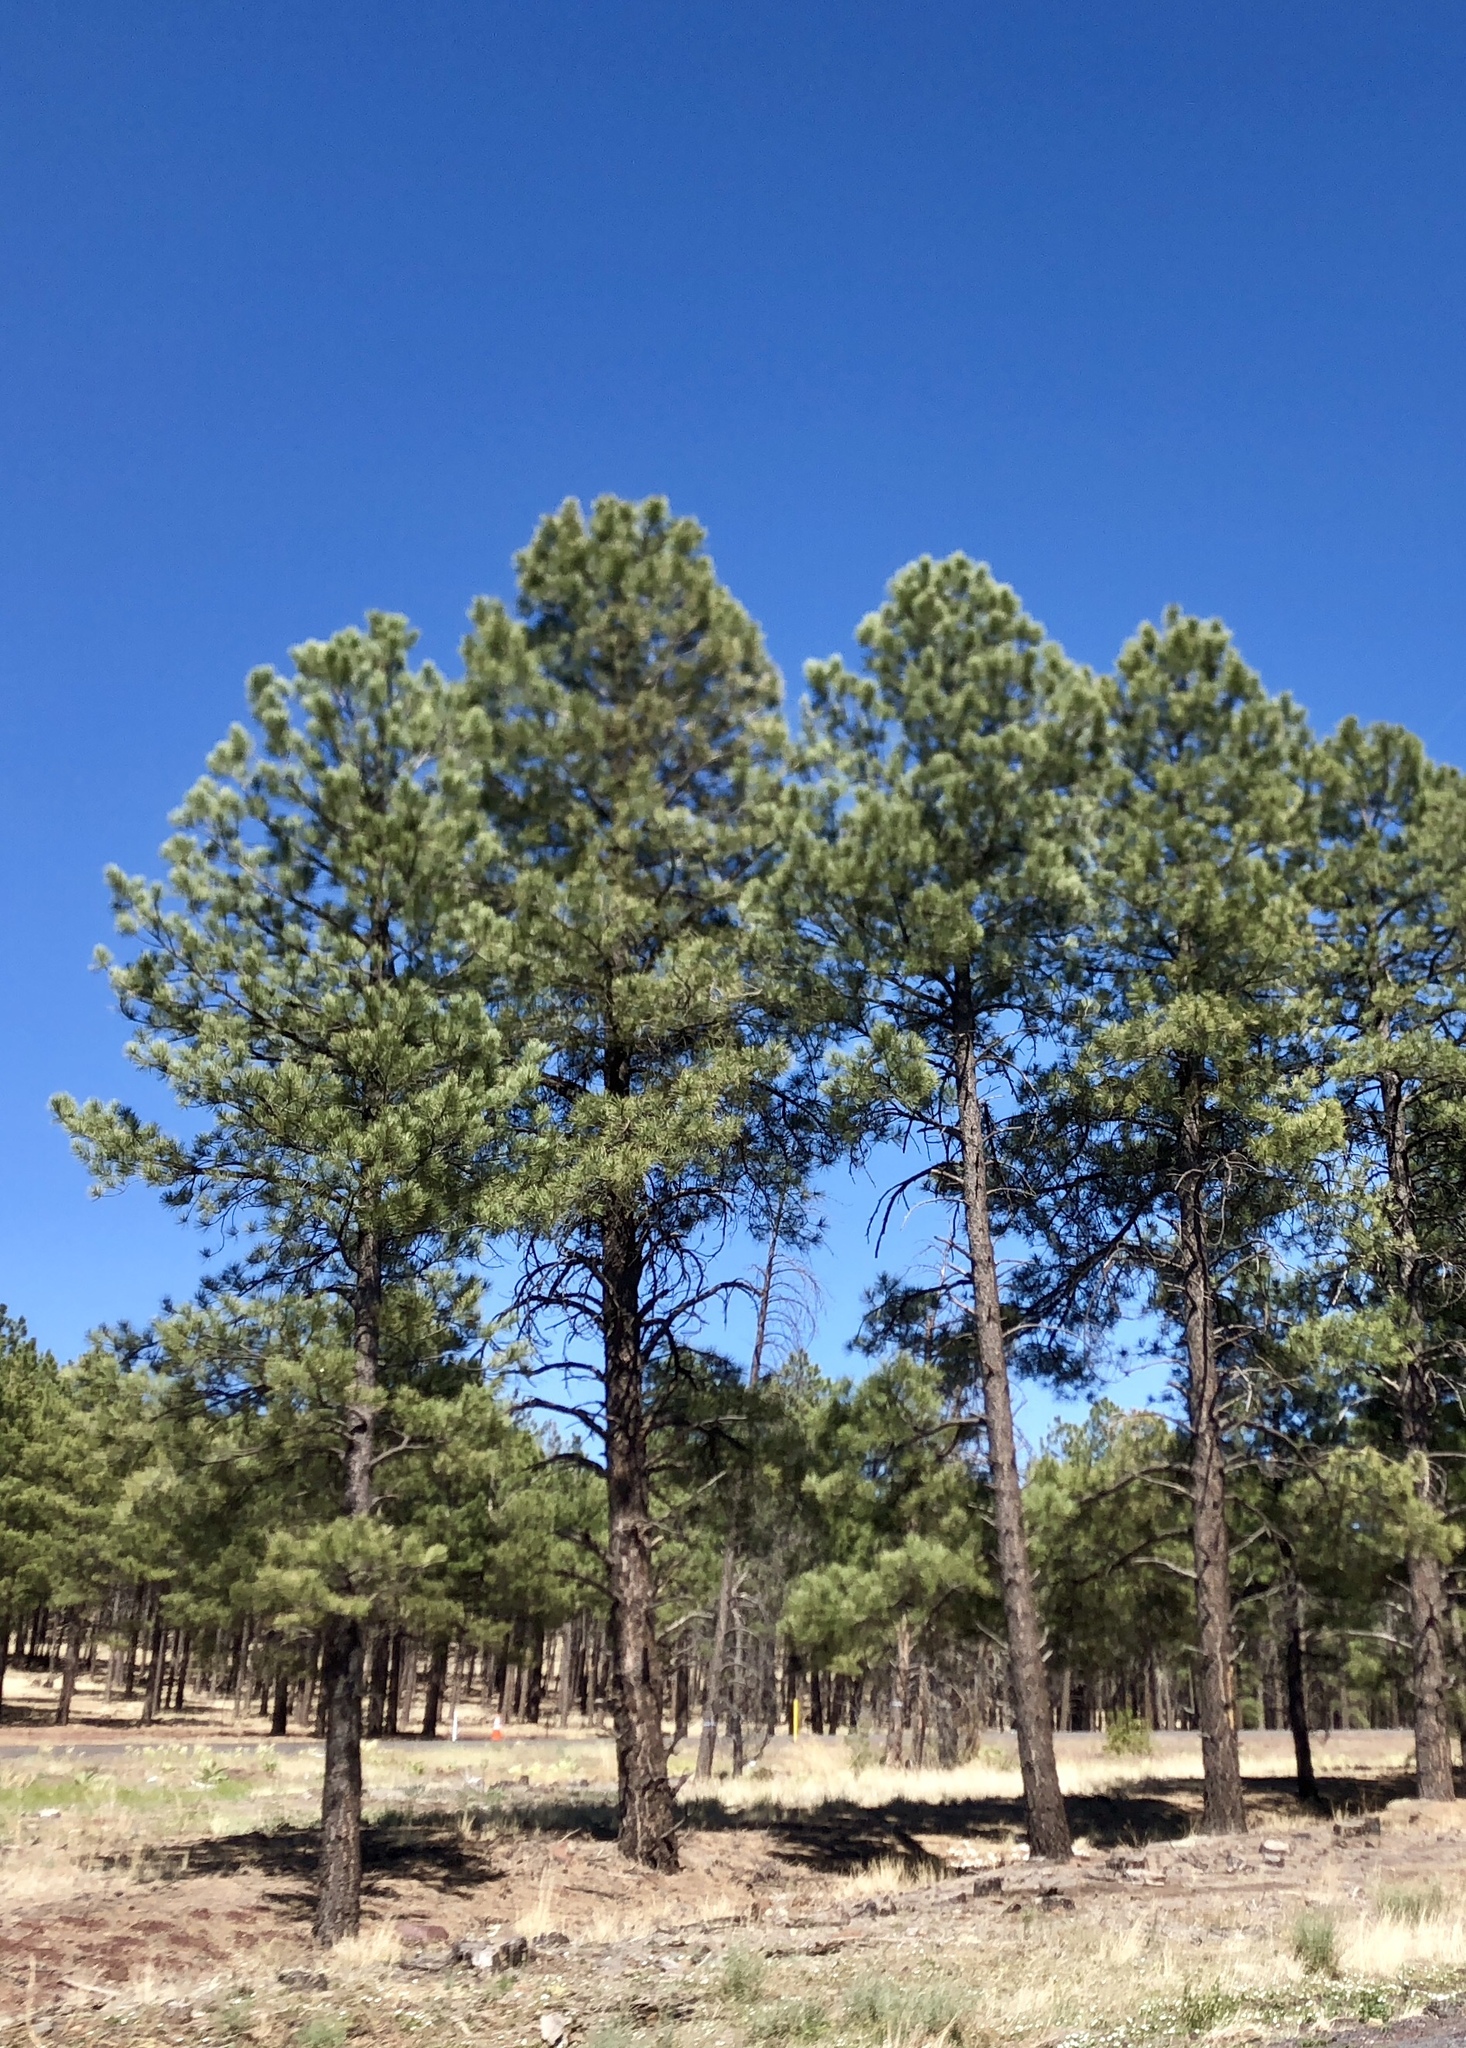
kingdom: Plantae
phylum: Tracheophyta
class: Pinopsida
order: Pinales
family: Pinaceae
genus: Pinus
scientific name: Pinus ponderosa
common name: Western yellow-pine
